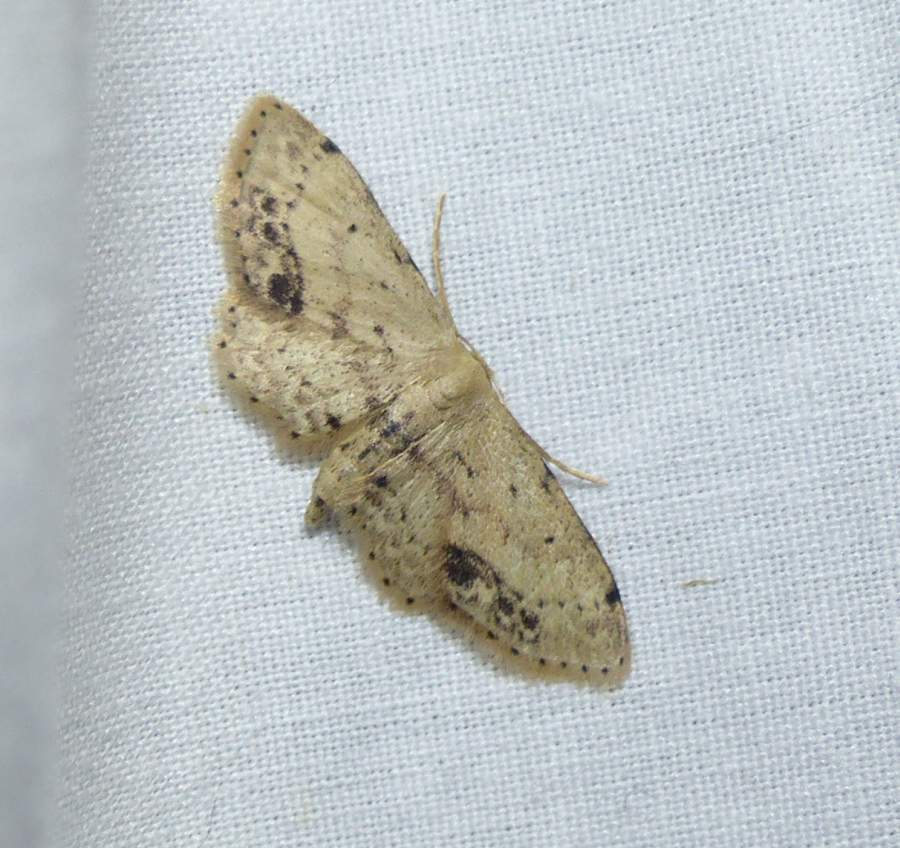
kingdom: Animalia
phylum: Arthropoda
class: Insecta
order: Lepidoptera
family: Geometridae
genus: Idaea
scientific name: Idaea dimidiata
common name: Single-dotted wave
